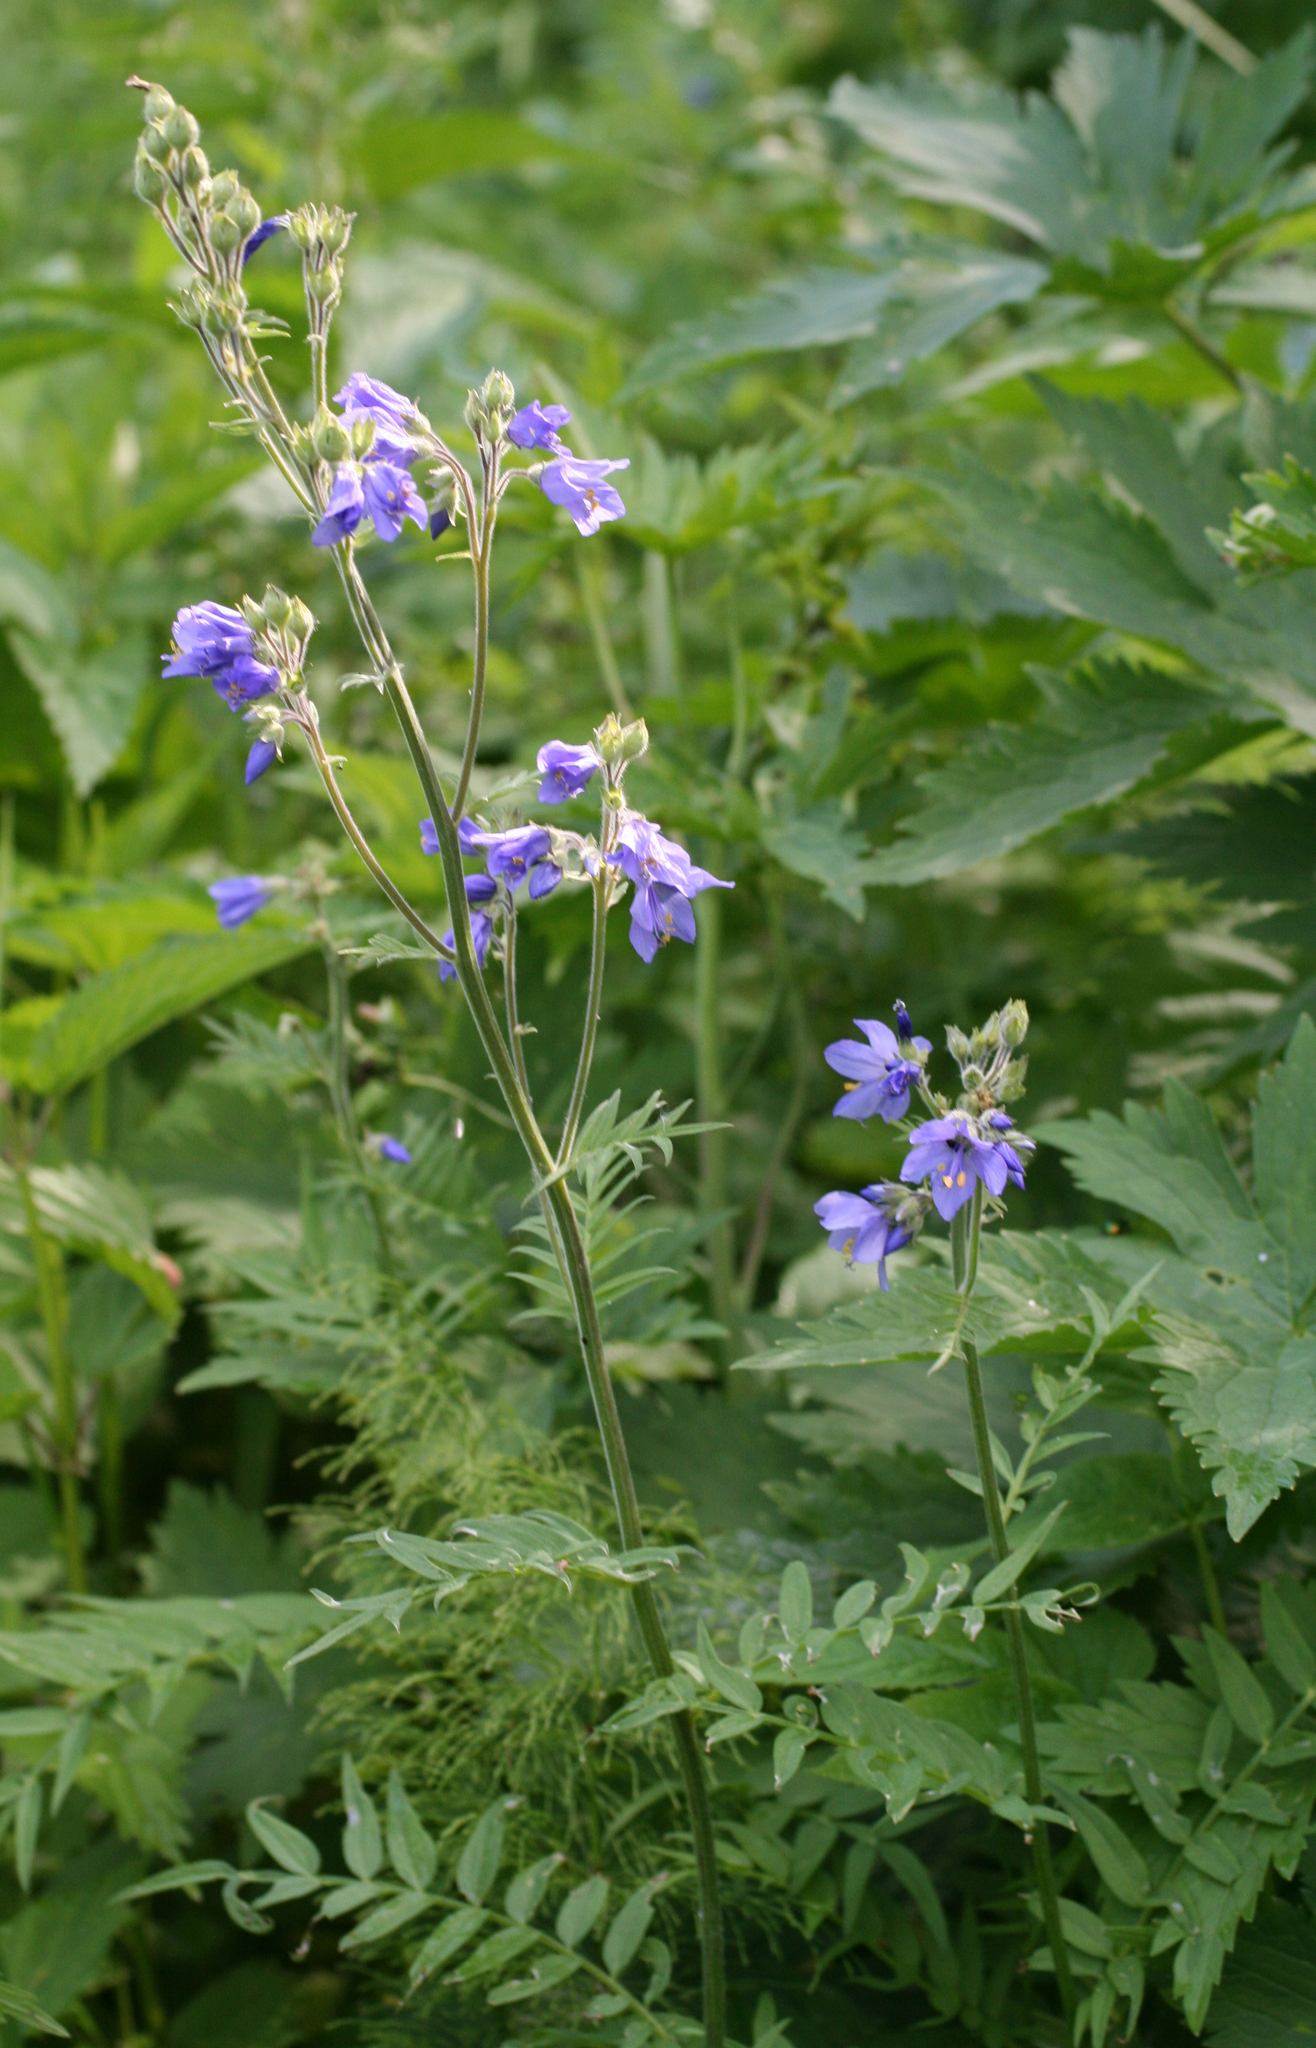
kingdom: Plantae
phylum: Tracheophyta
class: Magnoliopsida
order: Ericales
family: Polemoniaceae
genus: Polemonium
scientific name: Polemonium caeruleum
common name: Jacob's-ladder
